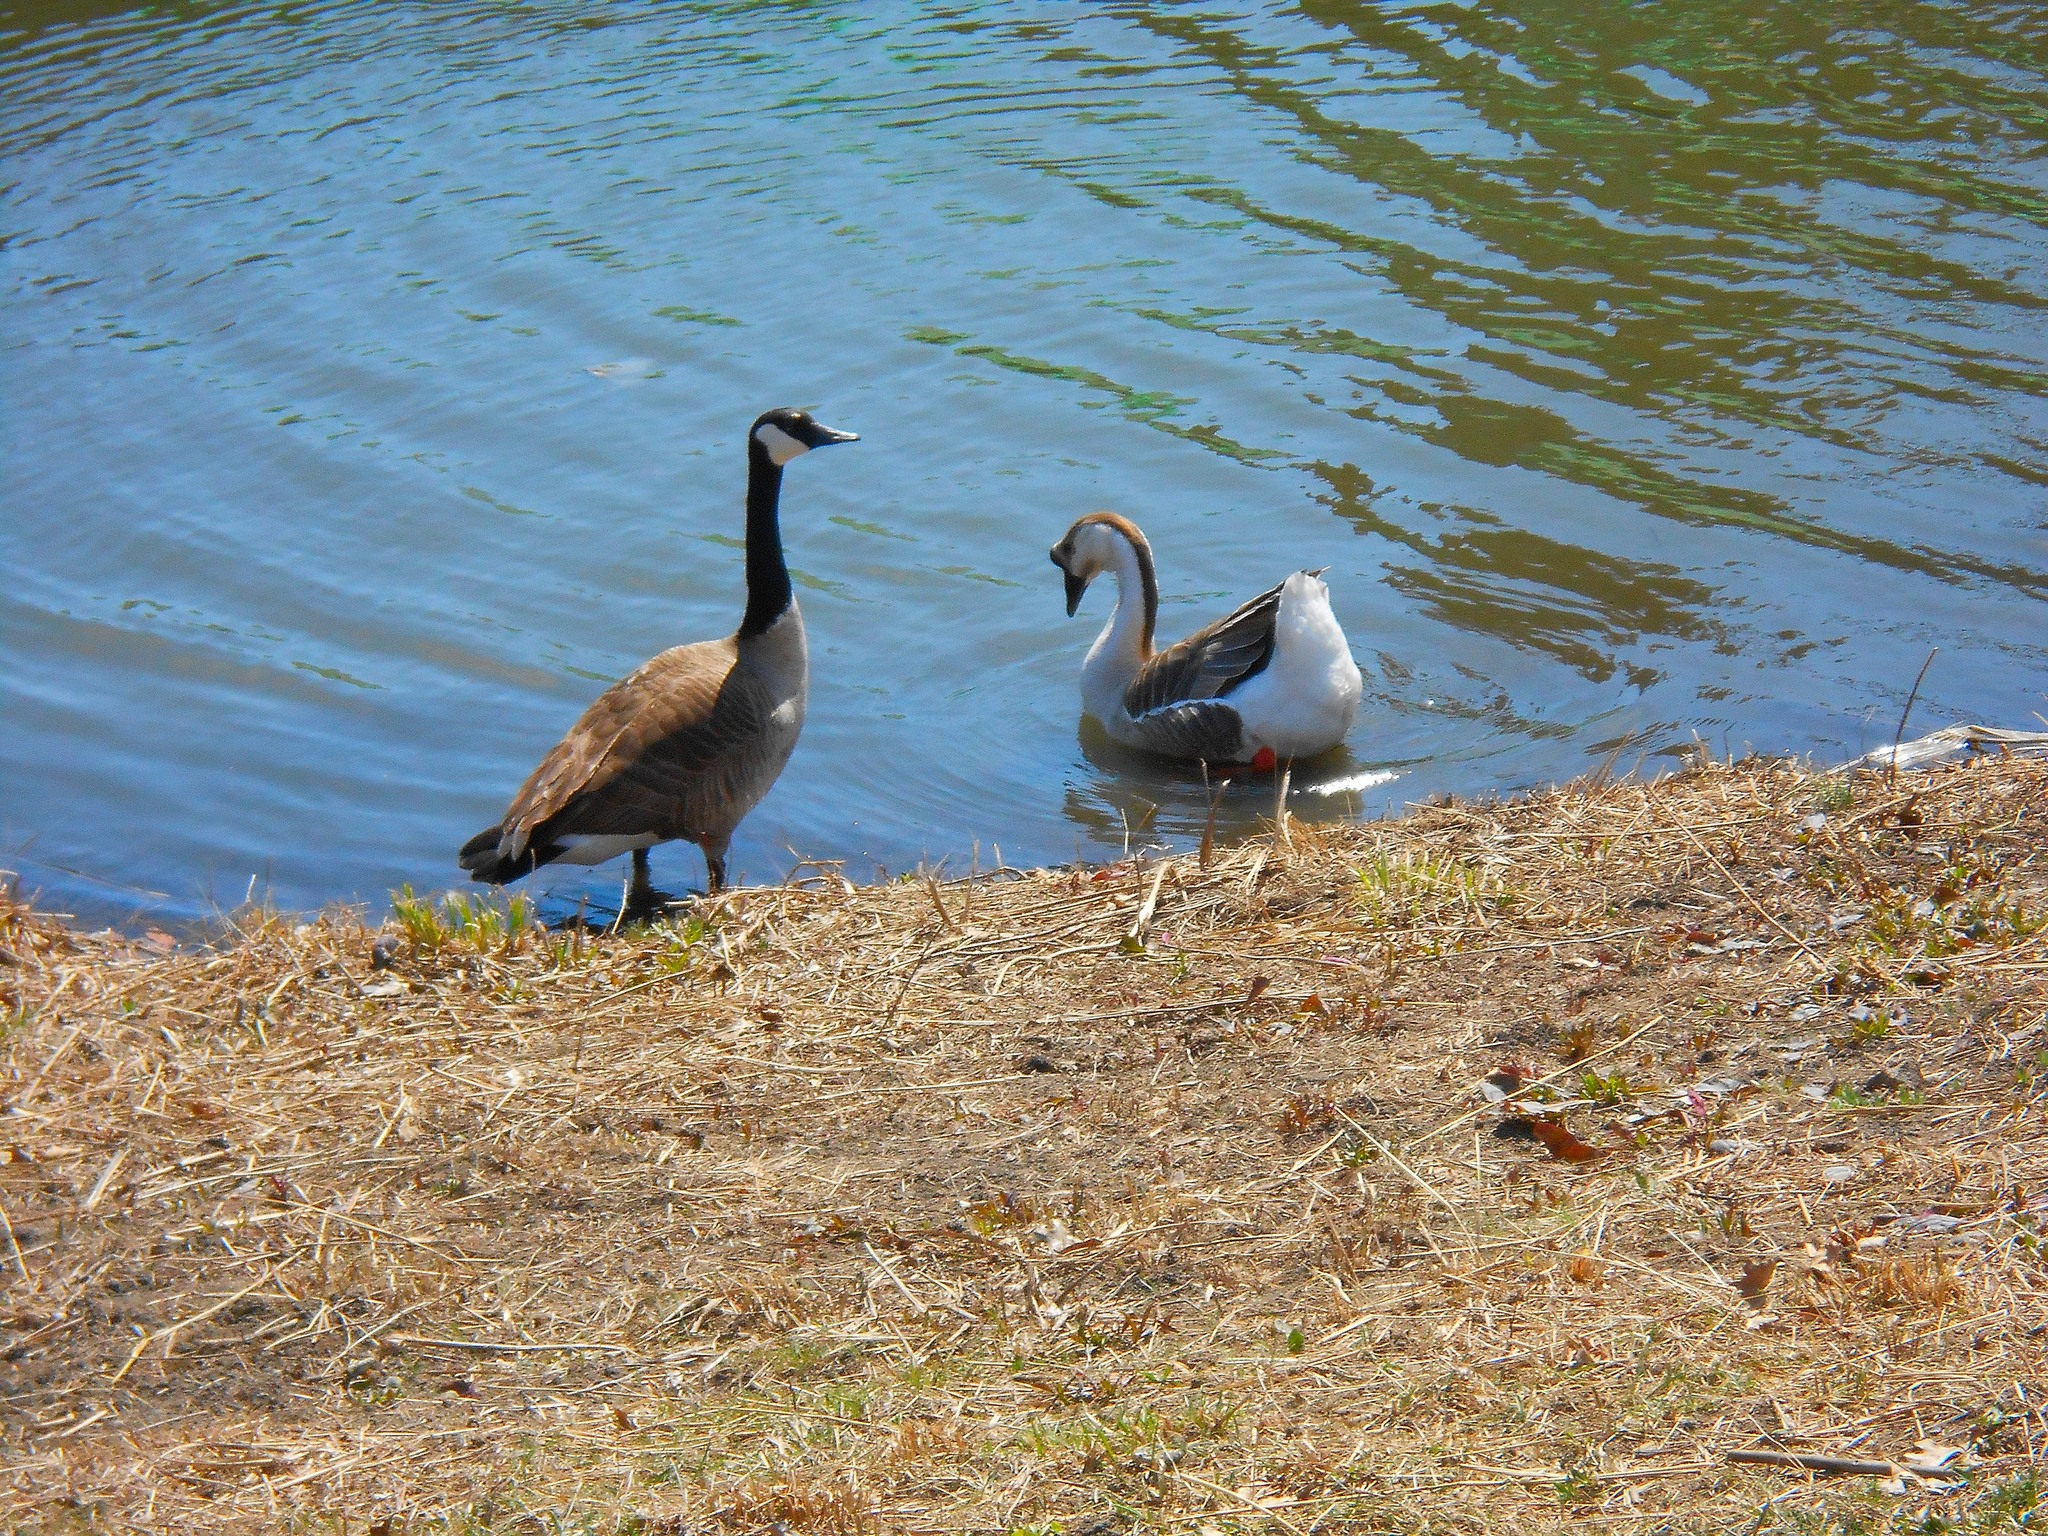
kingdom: Animalia
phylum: Chordata
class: Aves
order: Anseriformes
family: Anatidae
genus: Branta
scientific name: Branta canadensis
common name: Canada goose
